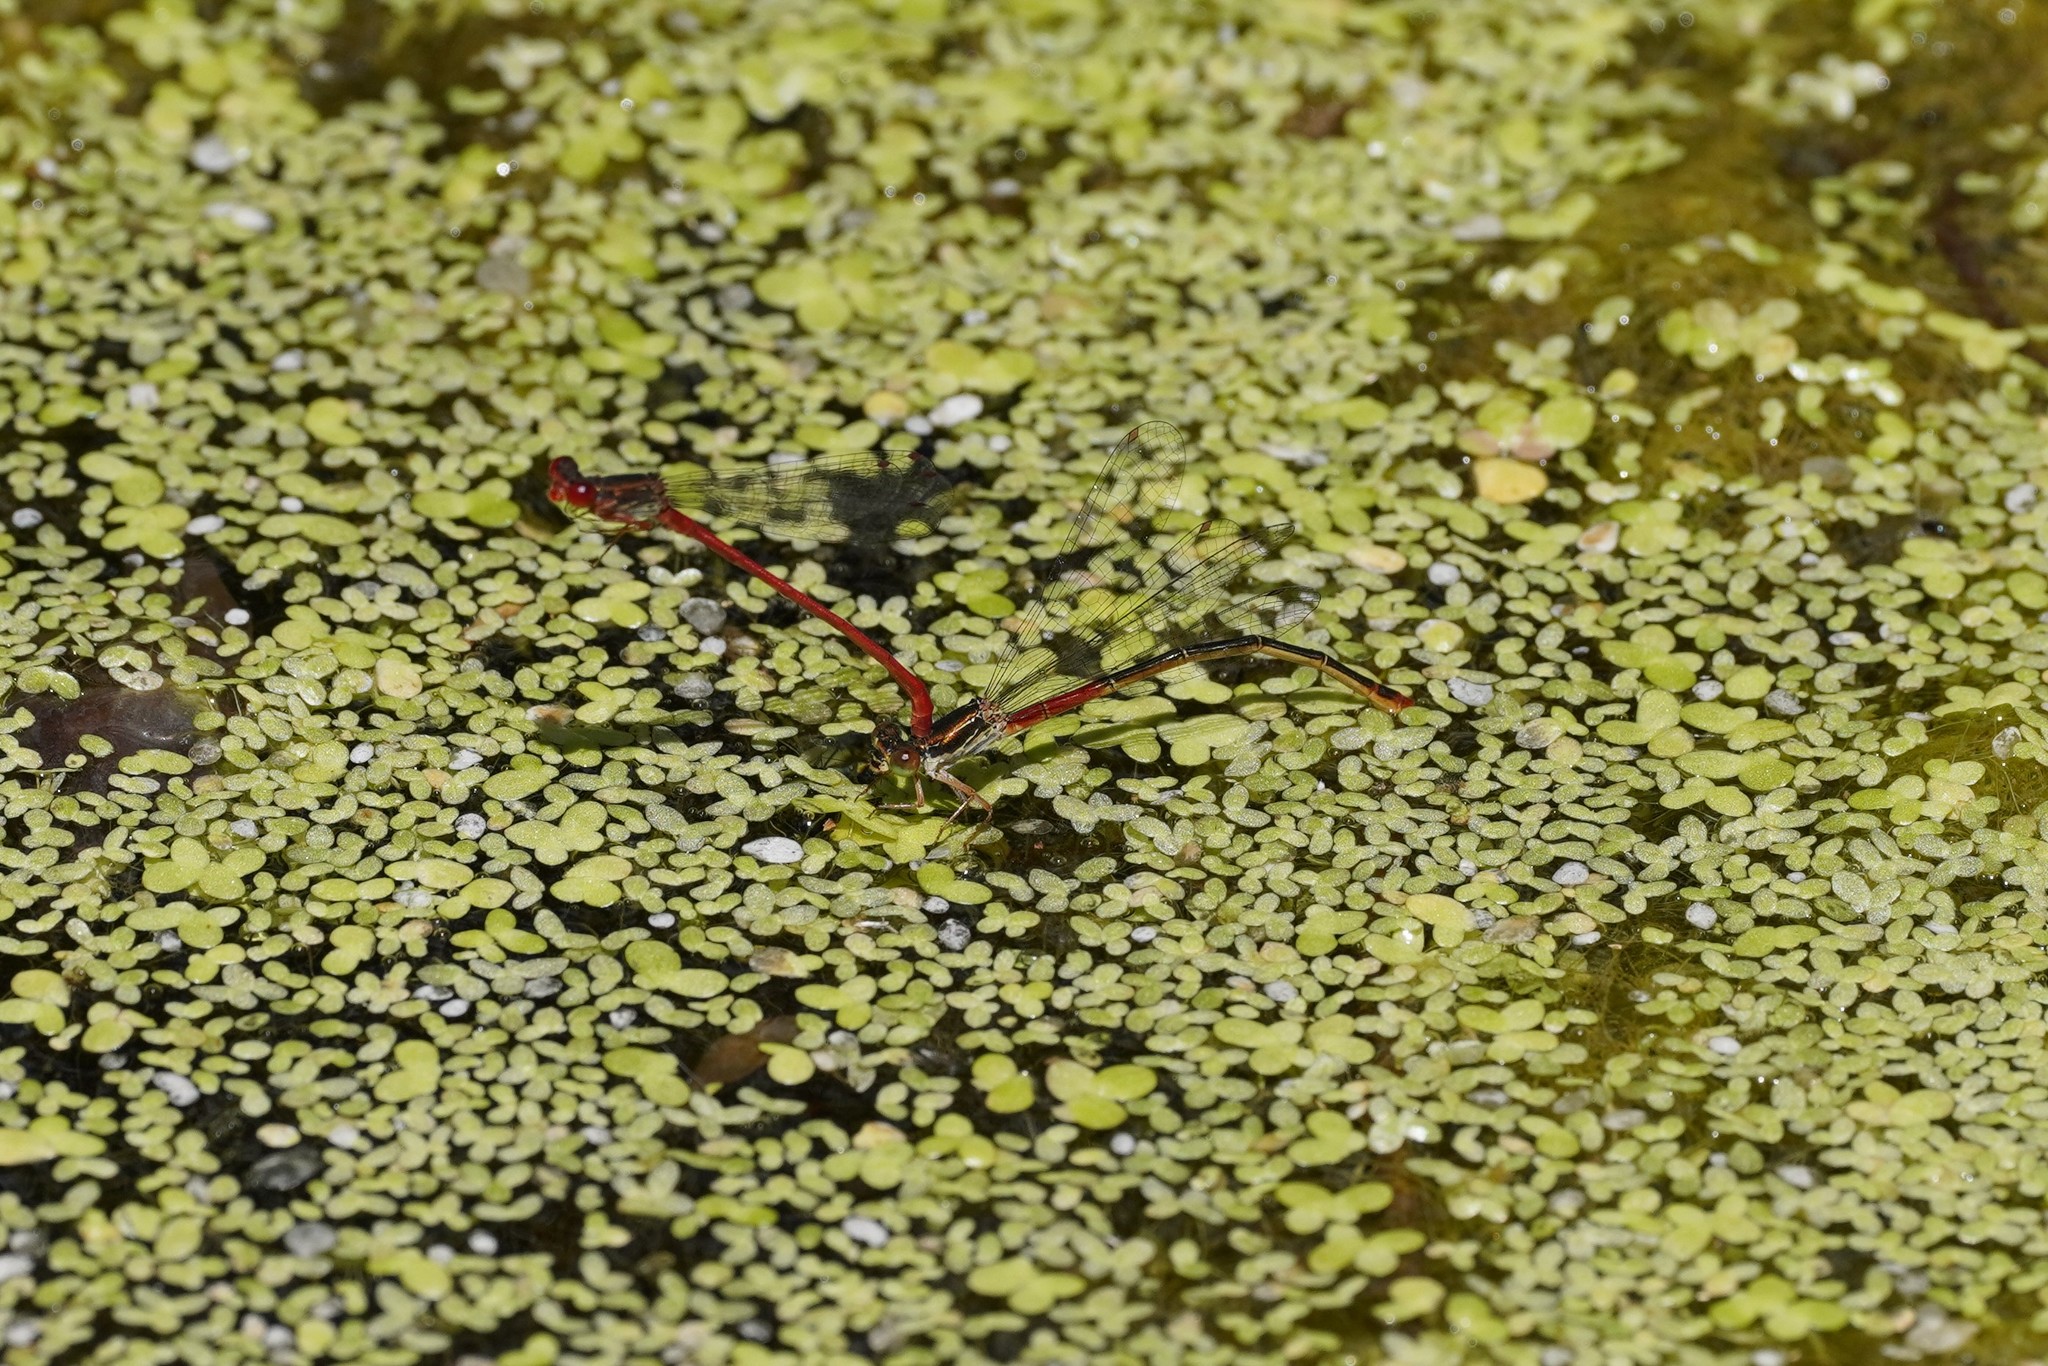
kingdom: Animalia
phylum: Arthropoda
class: Insecta
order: Odonata
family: Coenagrionidae
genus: Ceriagrion
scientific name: Ceriagrion tenellum
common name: Small red damselfly
